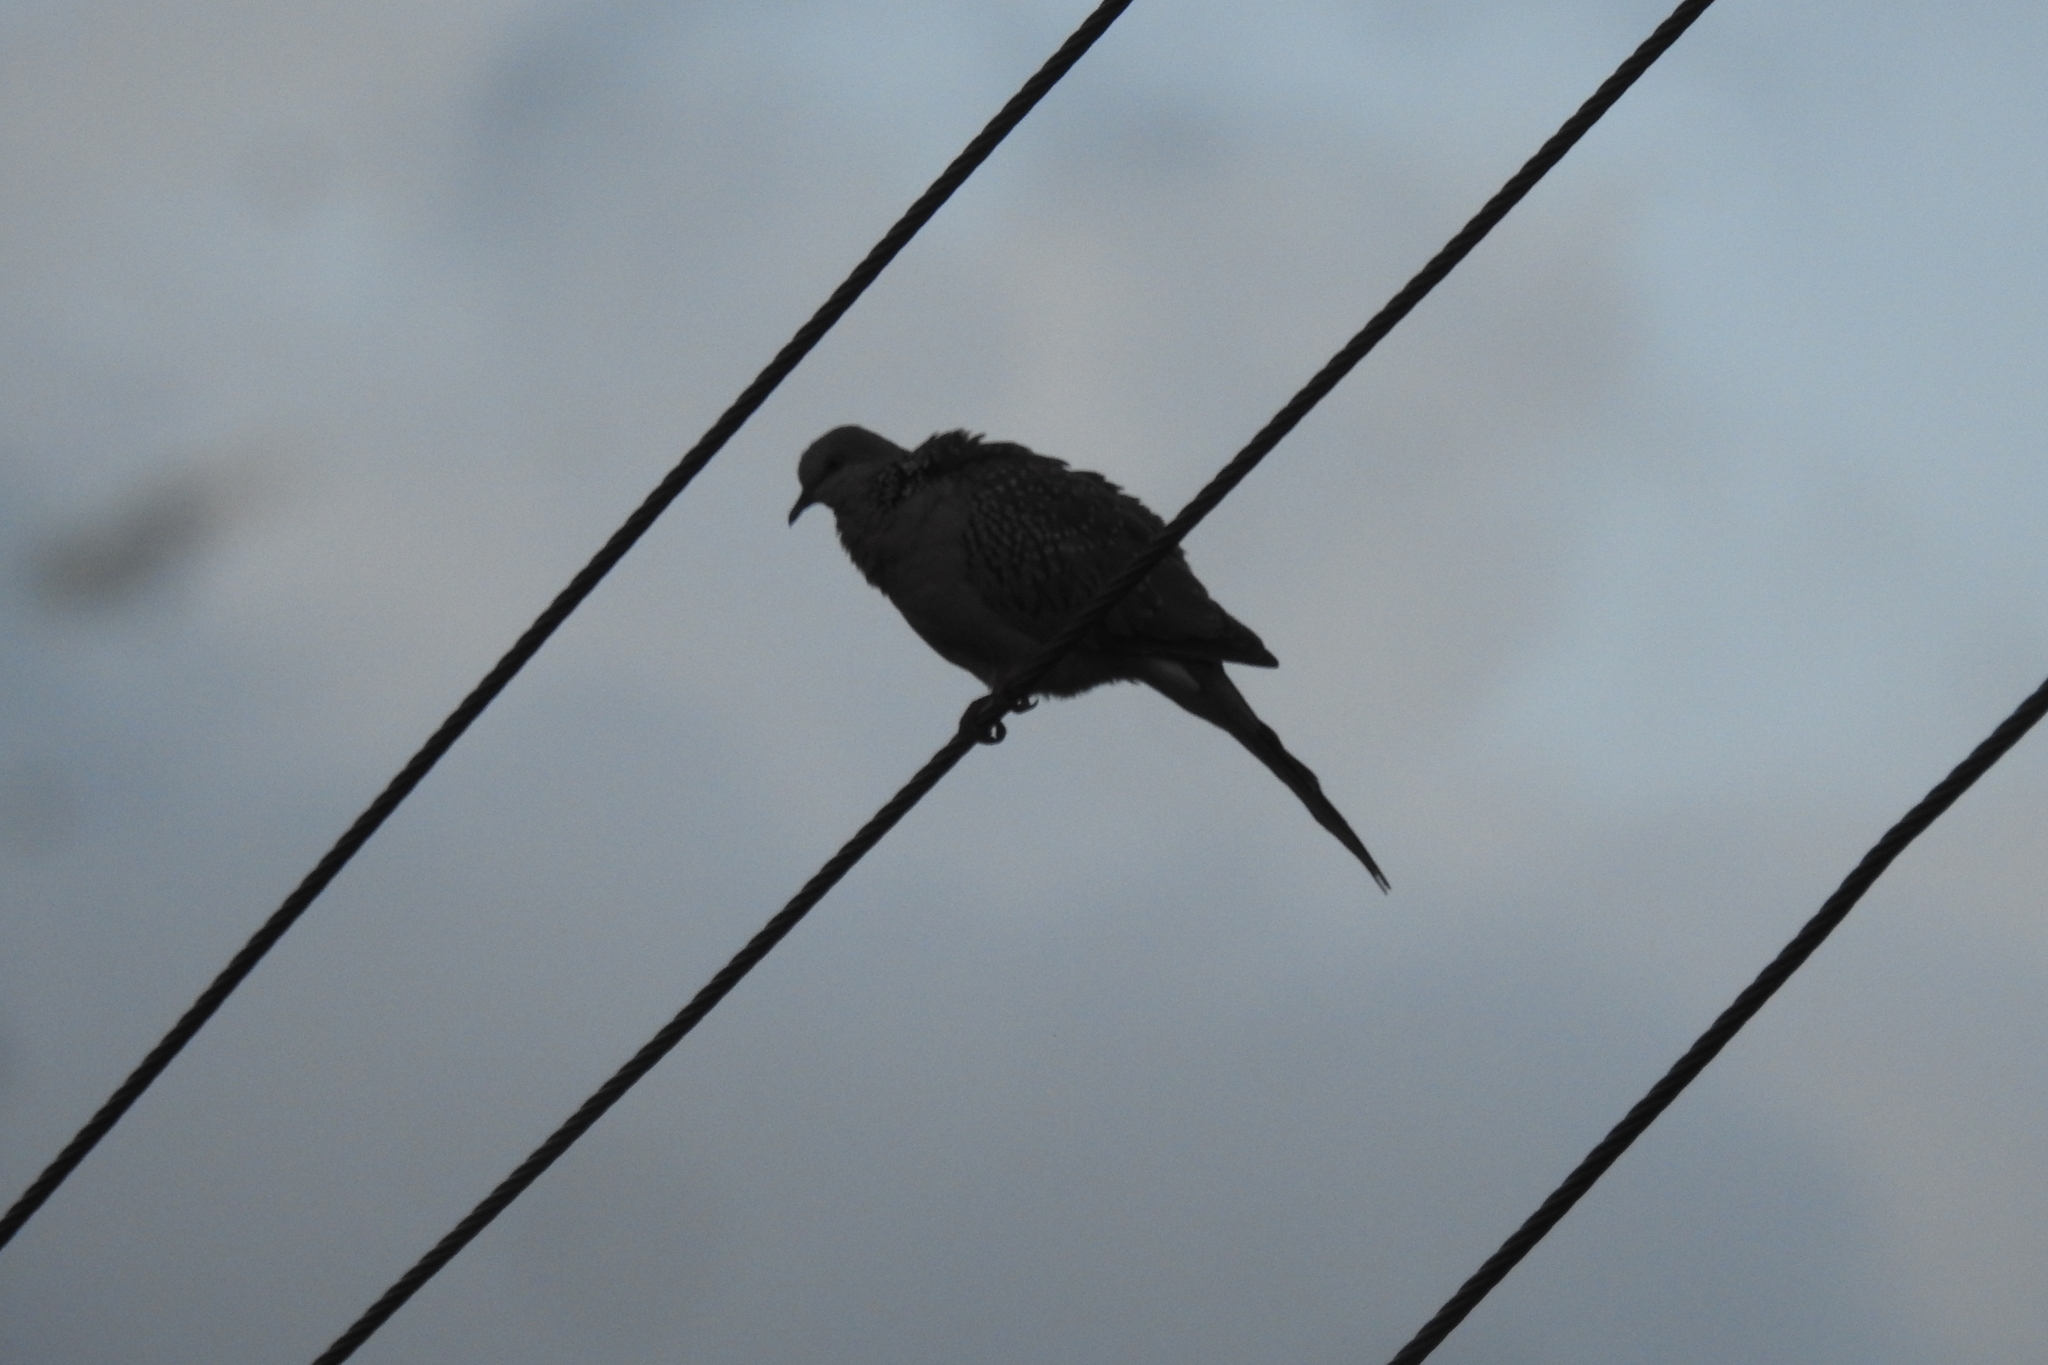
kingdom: Animalia
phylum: Chordata
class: Aves
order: Columbiformes
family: Columbidae
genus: Spilopelia
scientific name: Spilopelia chinensis
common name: Spotted dove
